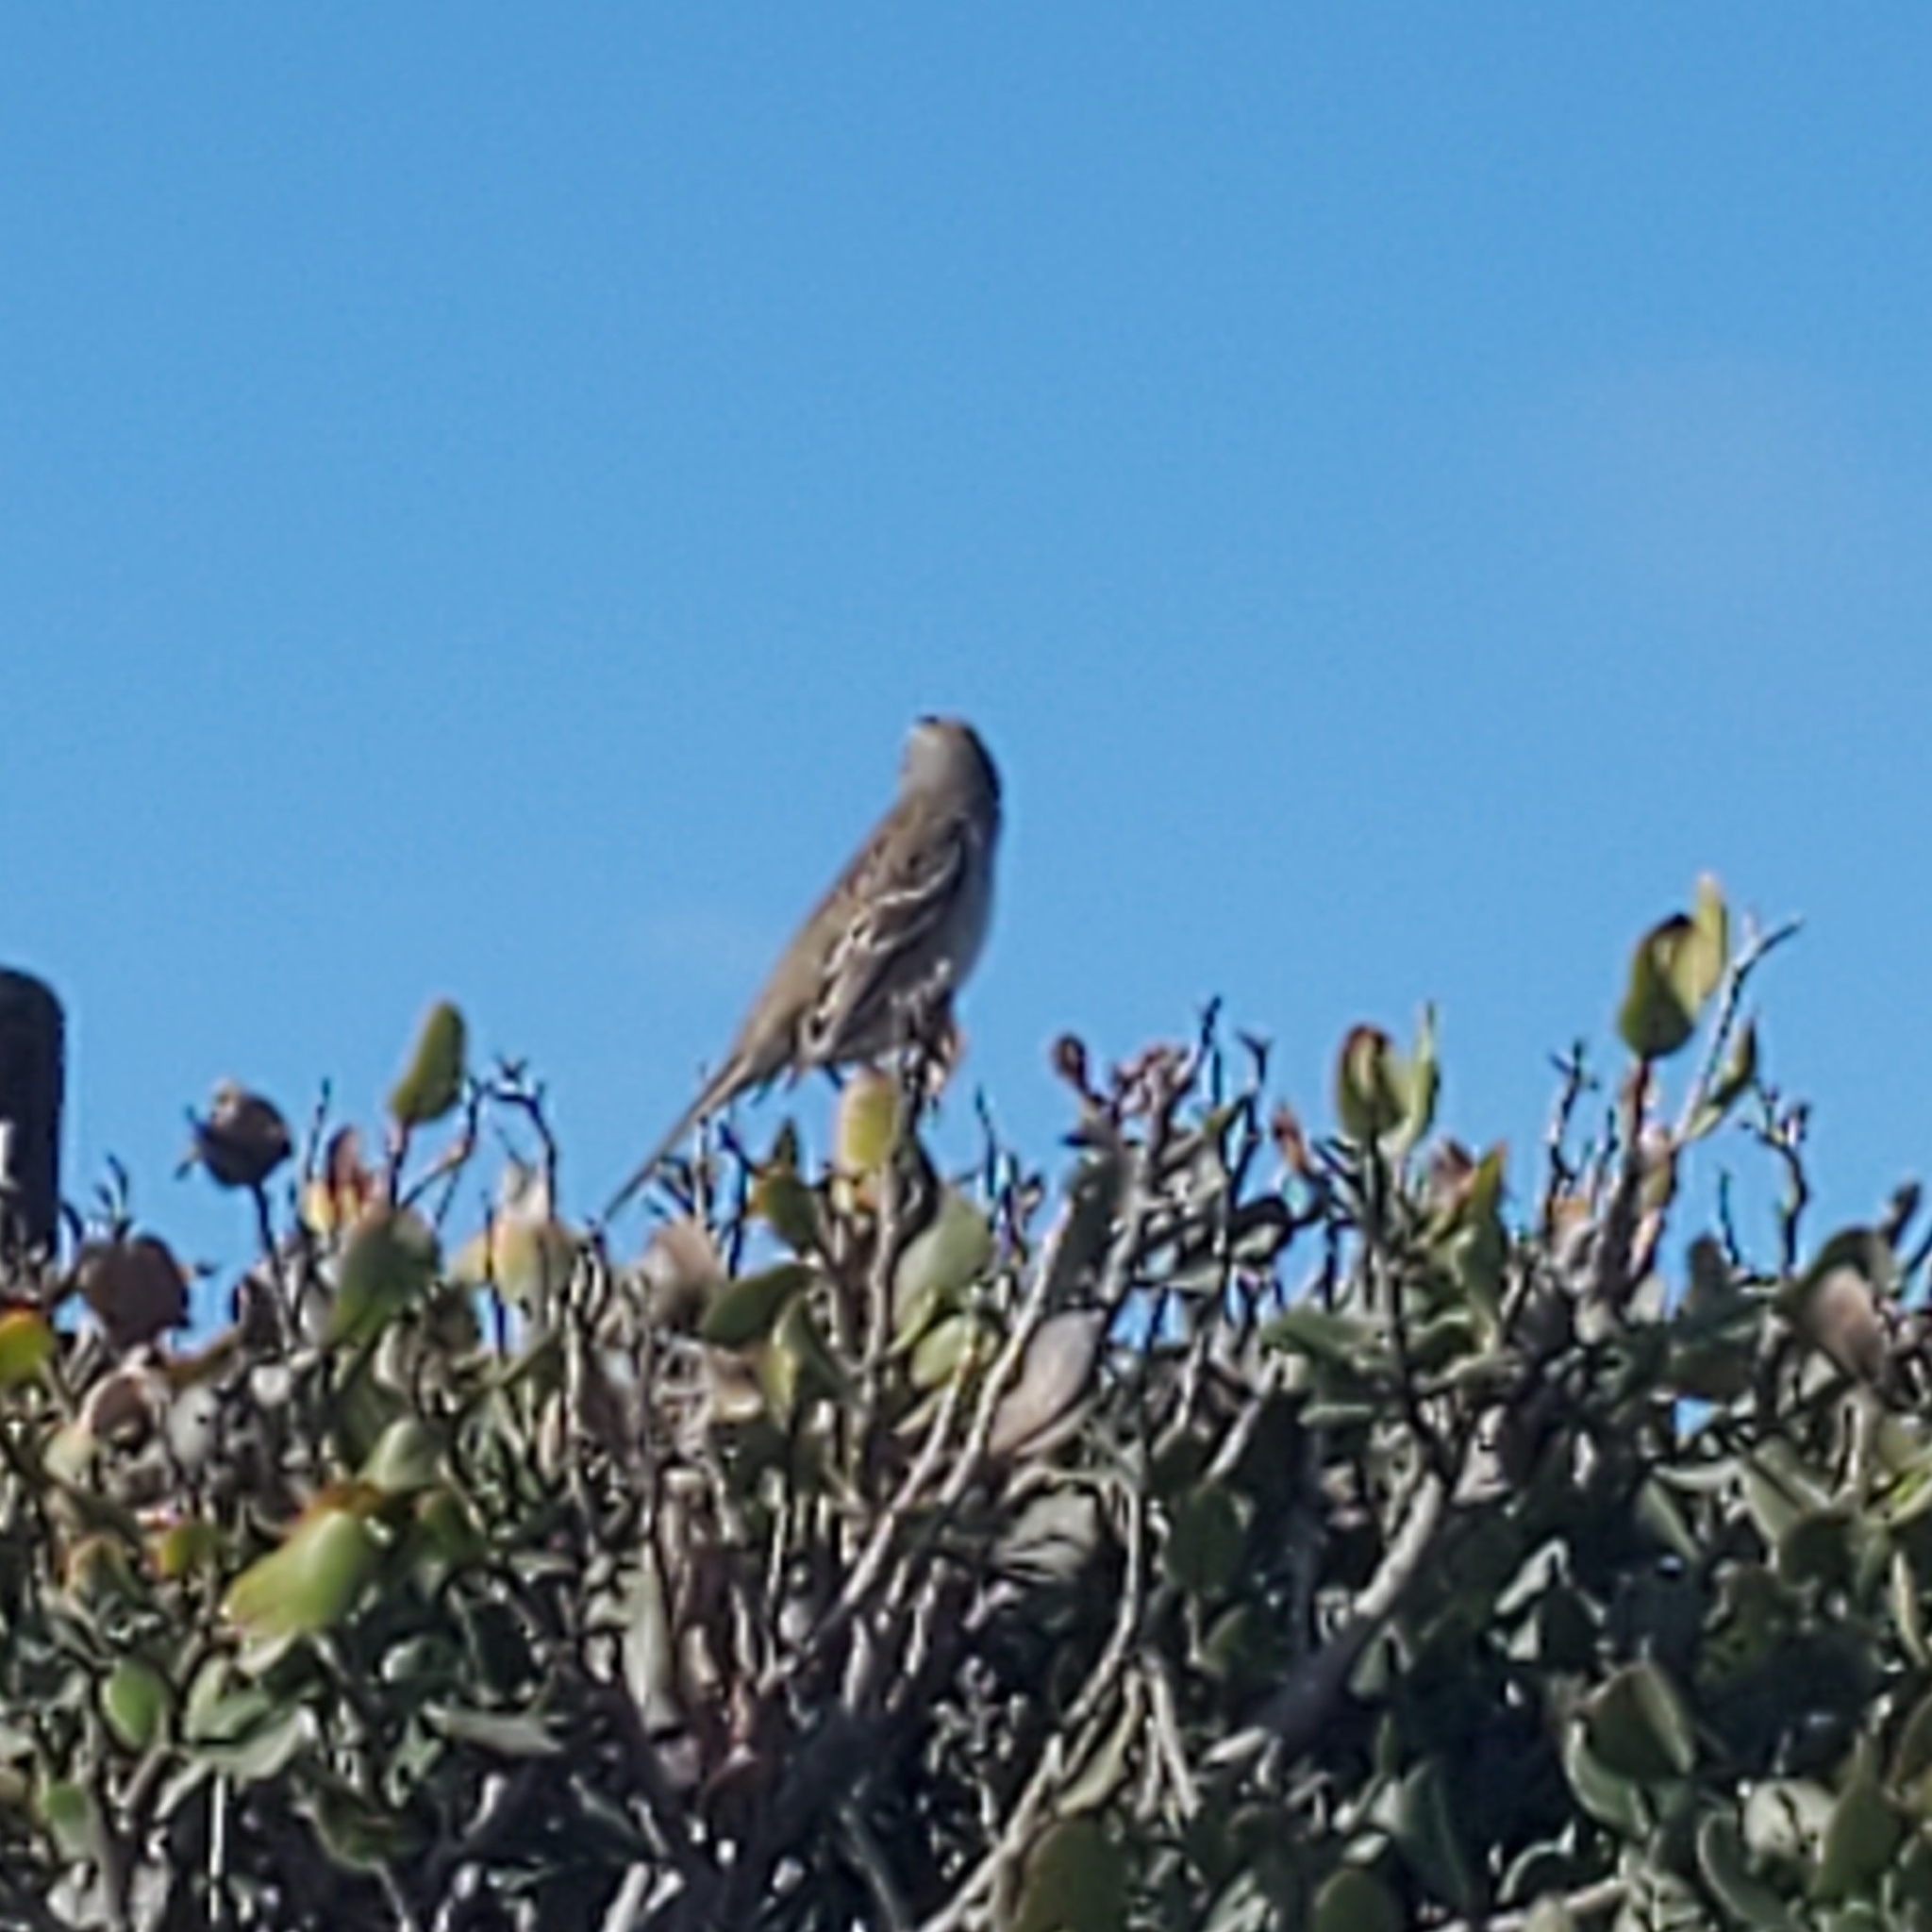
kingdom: Animalia
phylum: Chordata
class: Aves
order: Passeriformes
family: Passerellidae
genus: Zonotrichia
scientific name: Zonotrichia leucophrys
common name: White-crowned sparrow
